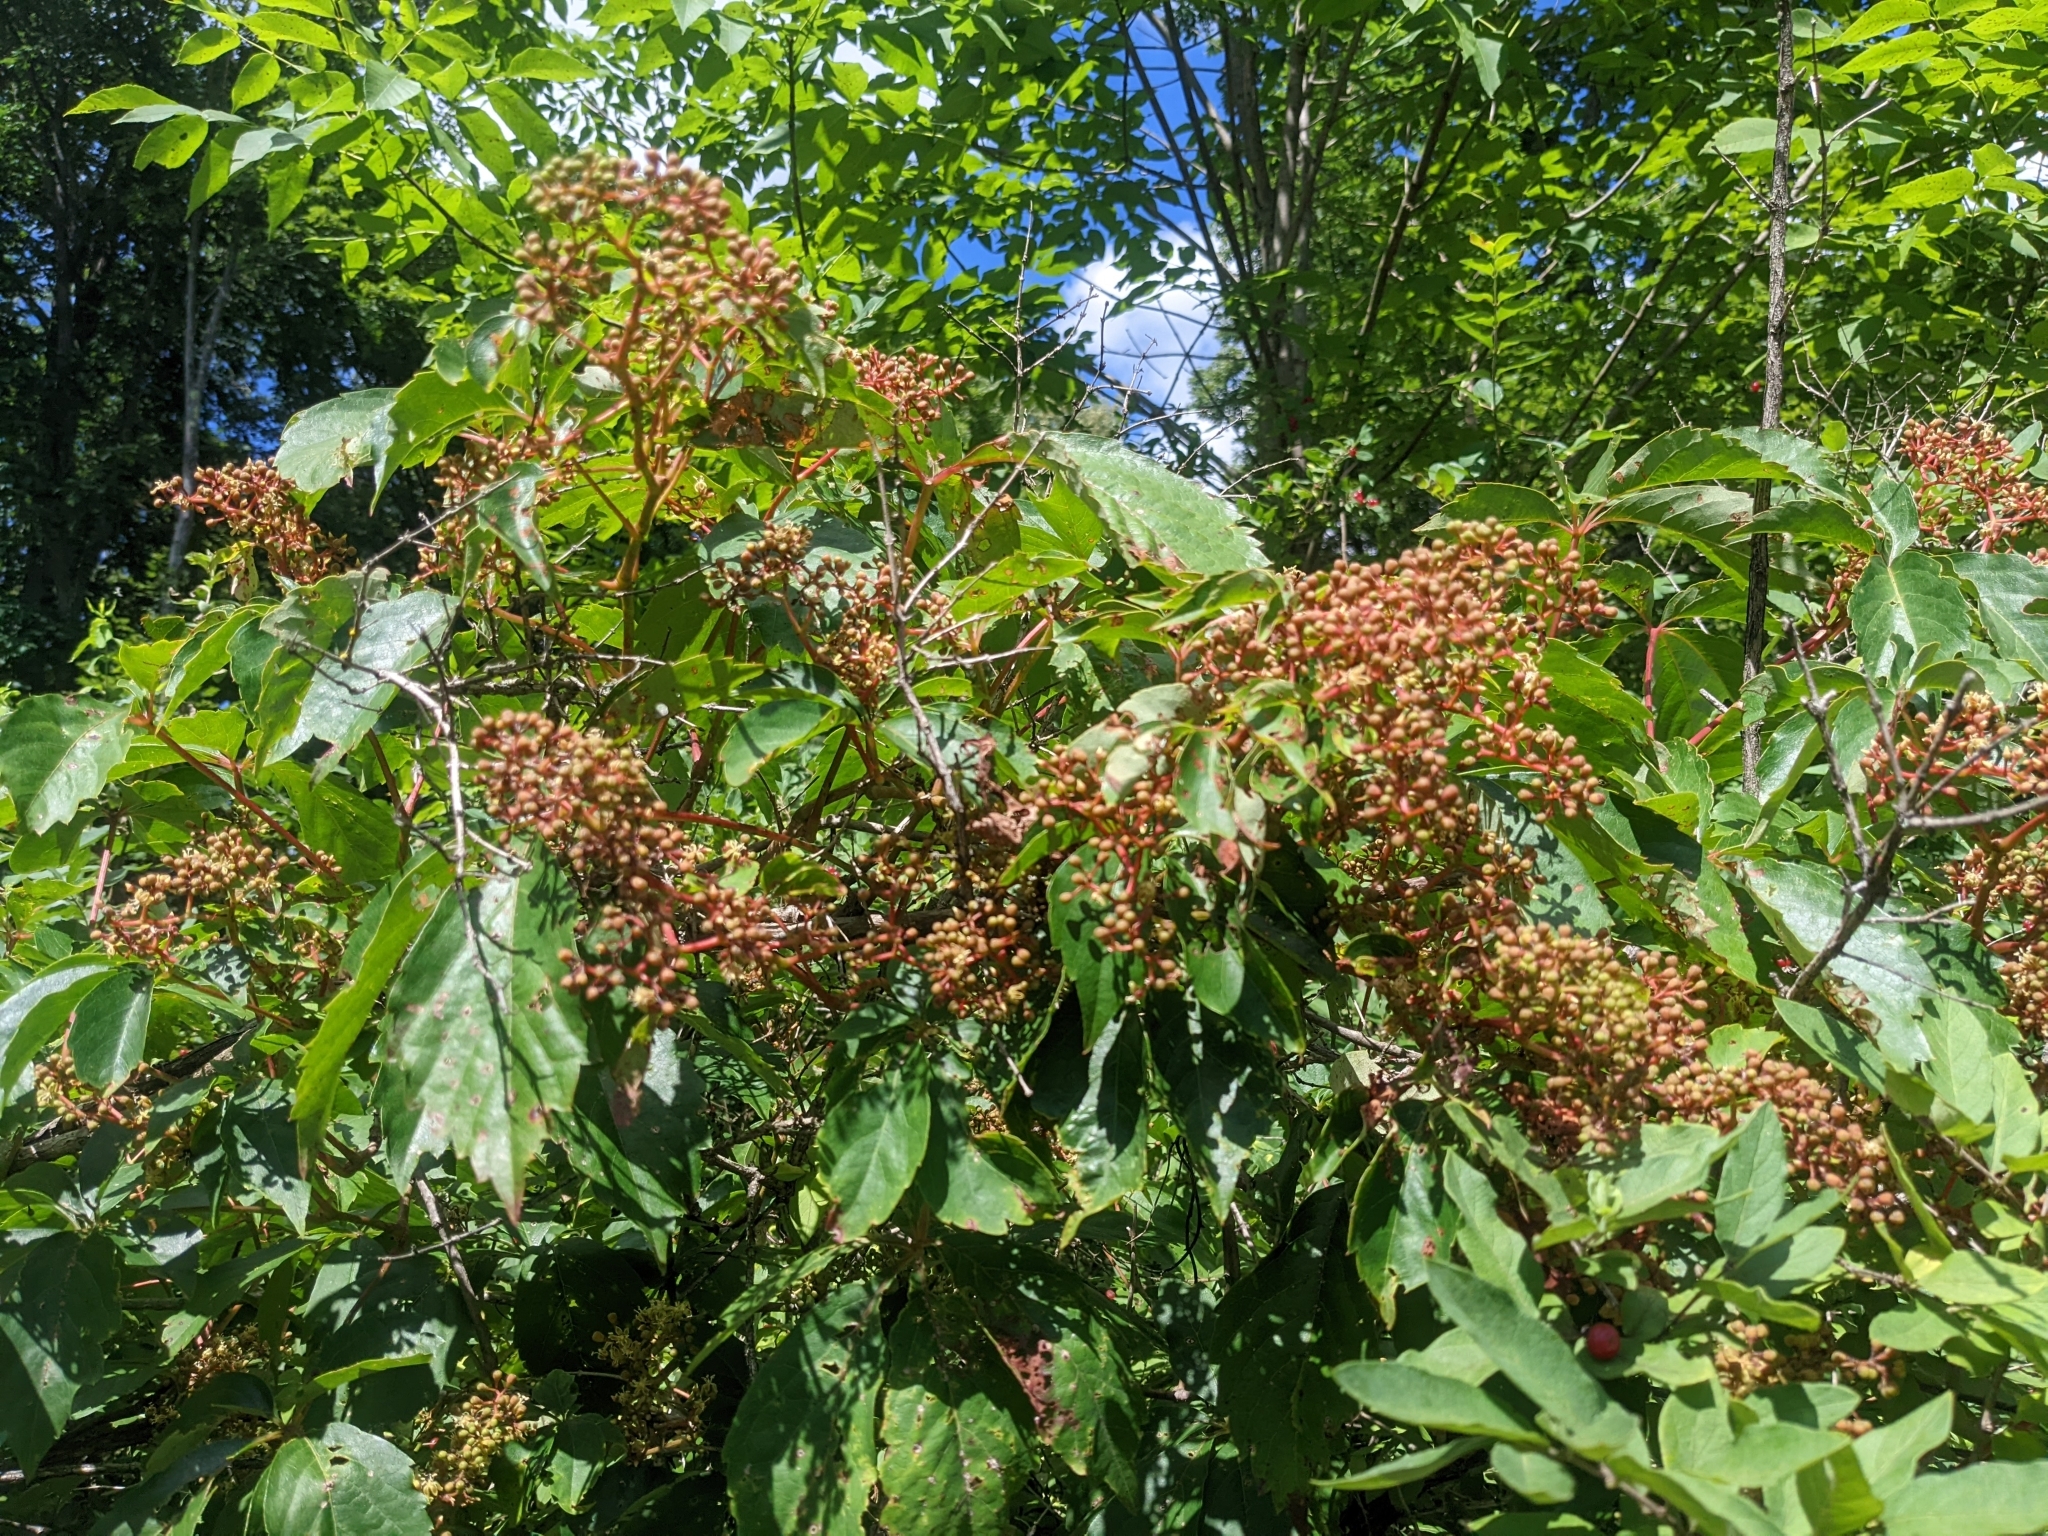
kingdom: Plantae
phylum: Tracheophyta
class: Magnoliopsida
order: Vitales
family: Vitaceae
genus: Parthenocissus
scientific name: Parthenocissus quinquefolia
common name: Virginia-creeper
